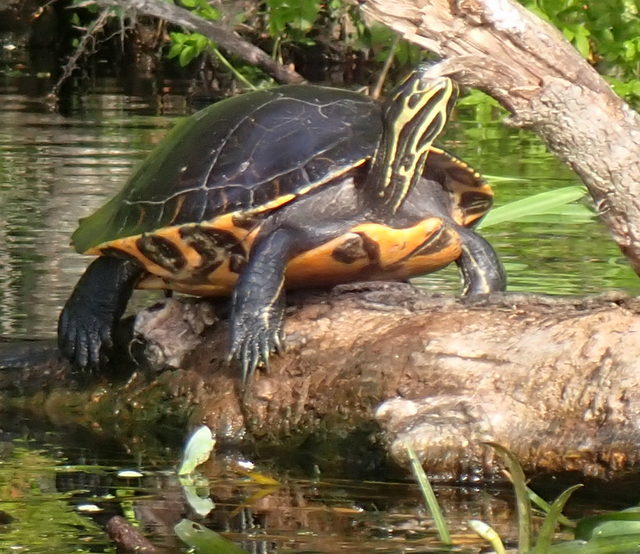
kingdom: Animalia
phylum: Chordata
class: Testudines
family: Emydidae
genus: Pseudemys
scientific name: Pseudemys concinna
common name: Eastern river cooter
